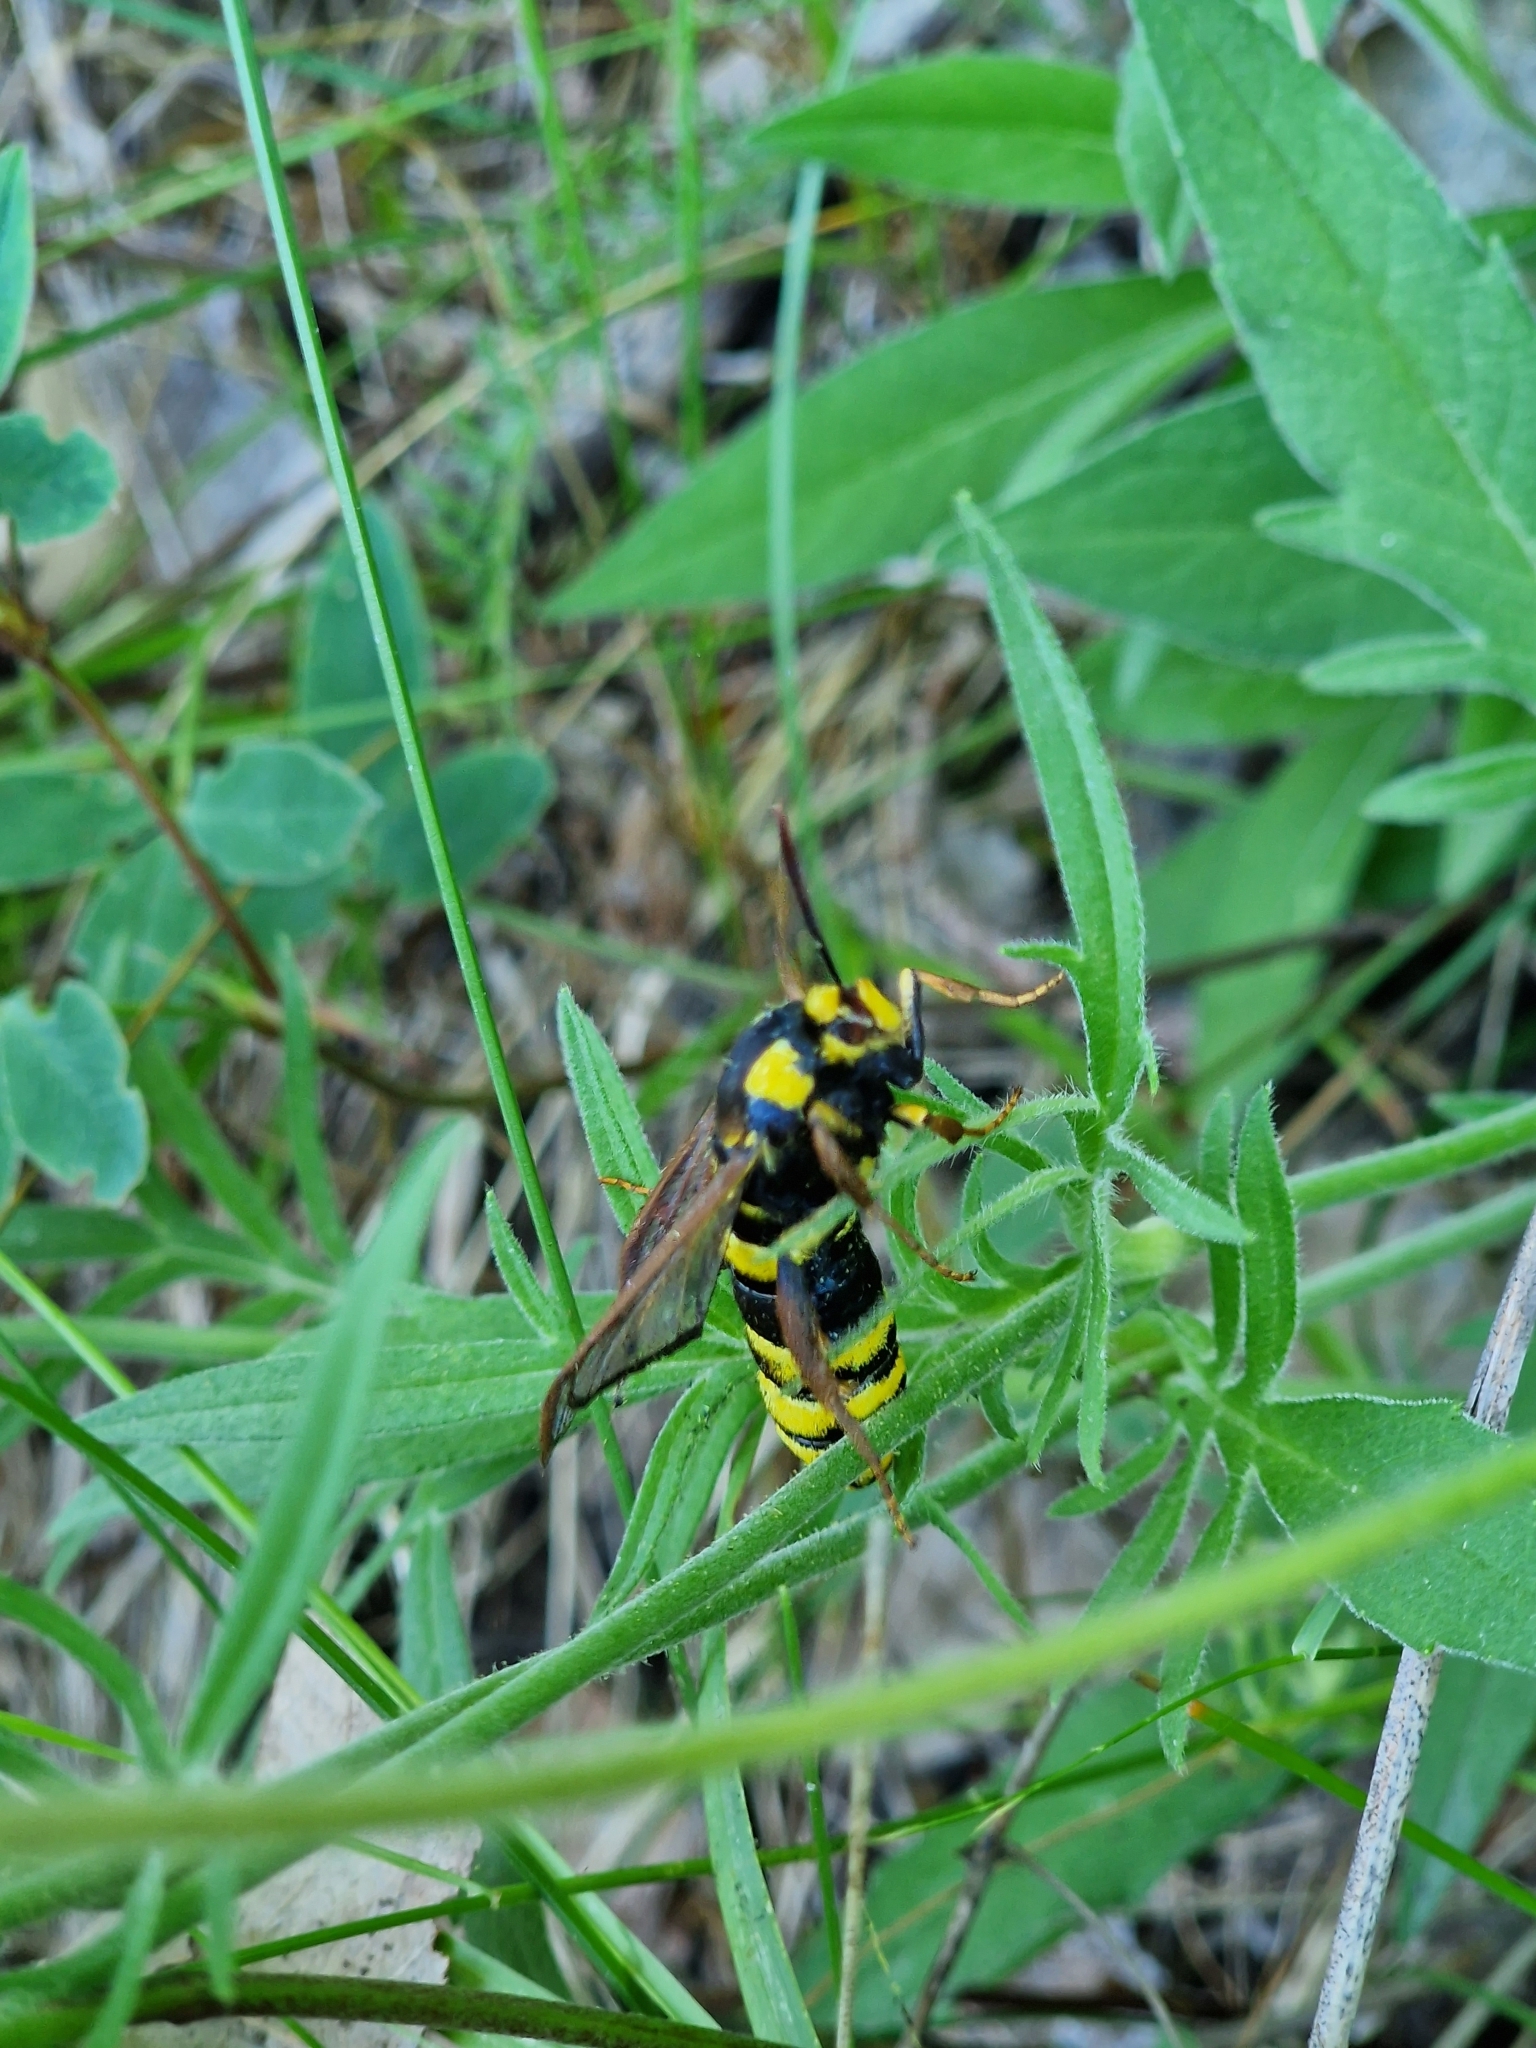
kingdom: Animalia
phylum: Arthropoda
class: Insecta
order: Lepidoptera
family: Sesiidae
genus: Sesia
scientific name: Sesia apiformis
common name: Hornet moth
